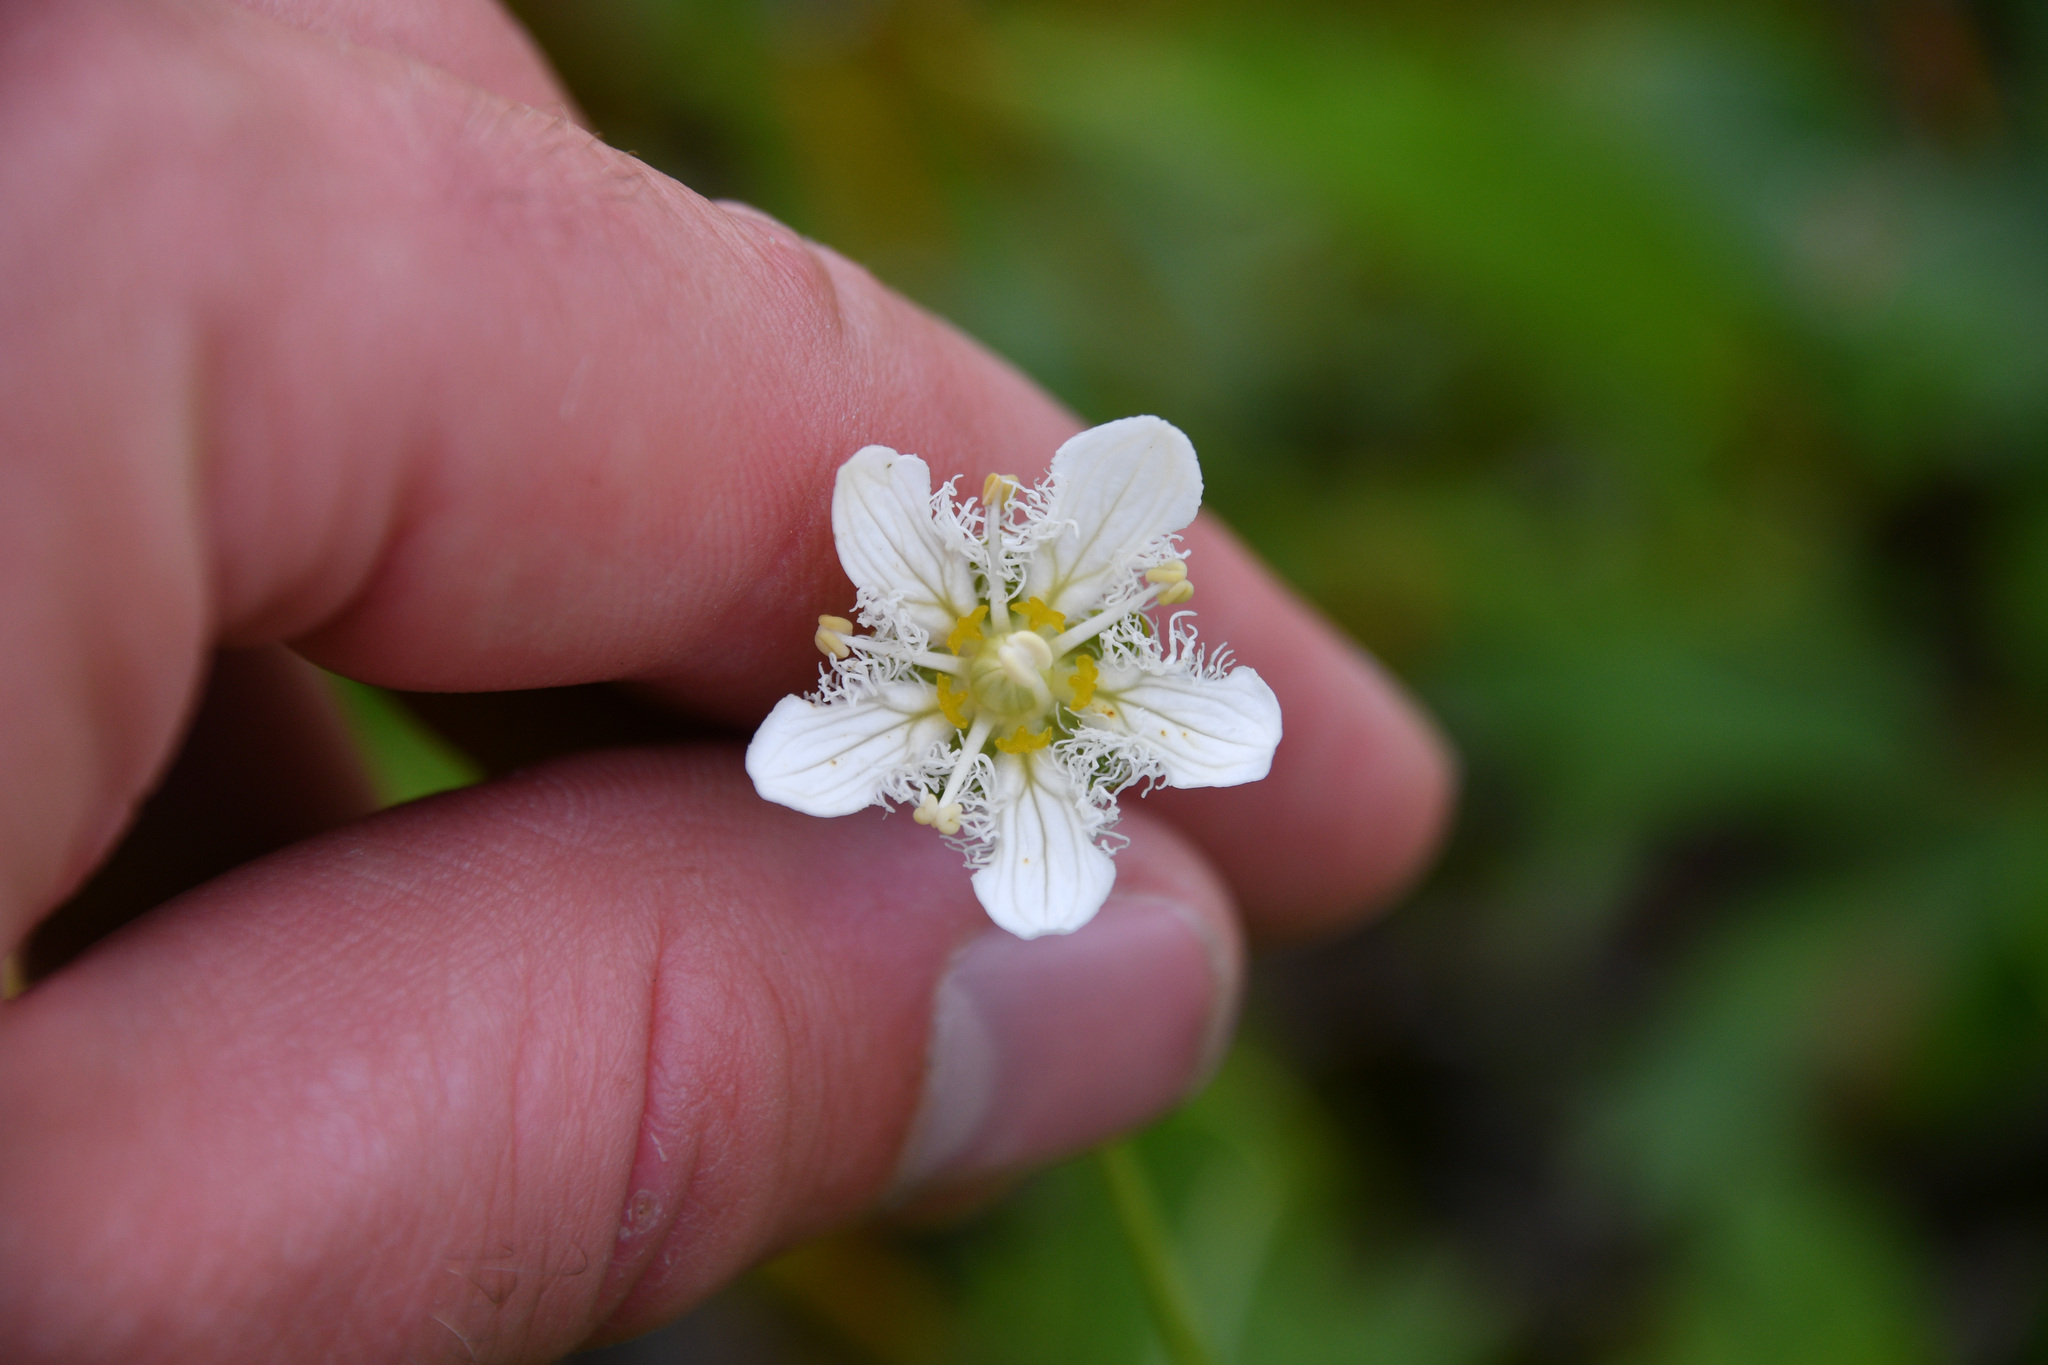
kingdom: Plantae
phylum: Tracheophyta
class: Magnoliopsida
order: Celastrales
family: Parnassiaceae
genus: Parnassia
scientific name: Parnassia fimbriata
